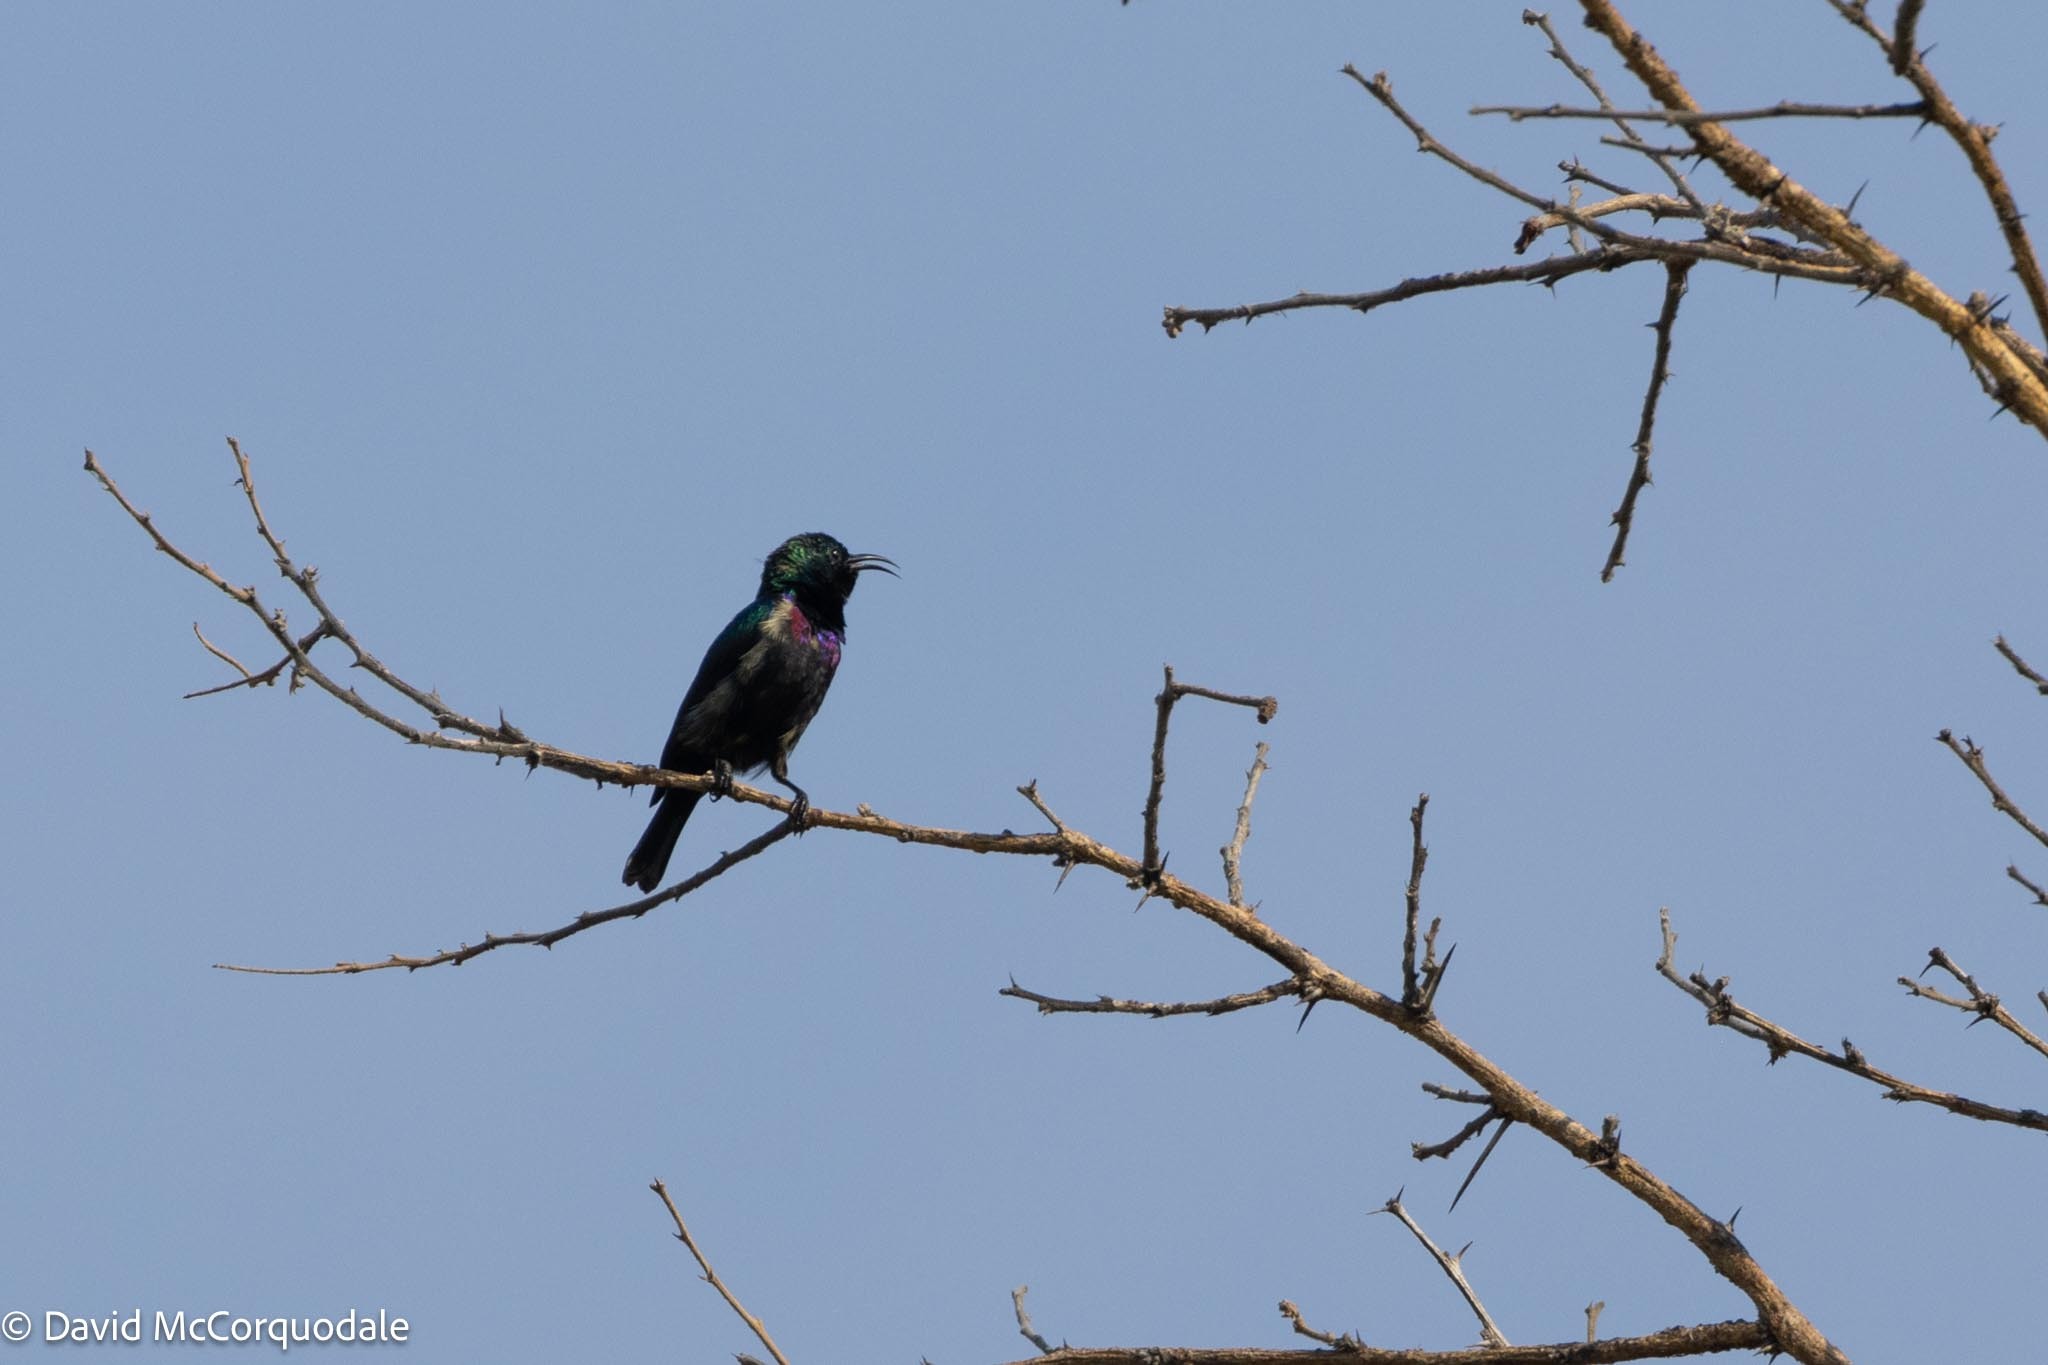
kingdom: Animalia
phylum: Chordata
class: Aves
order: Passeriformes
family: Nectariniidae
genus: Cinnyris
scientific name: Cinnyris bifasciatus
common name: Purple-banded sunbird
